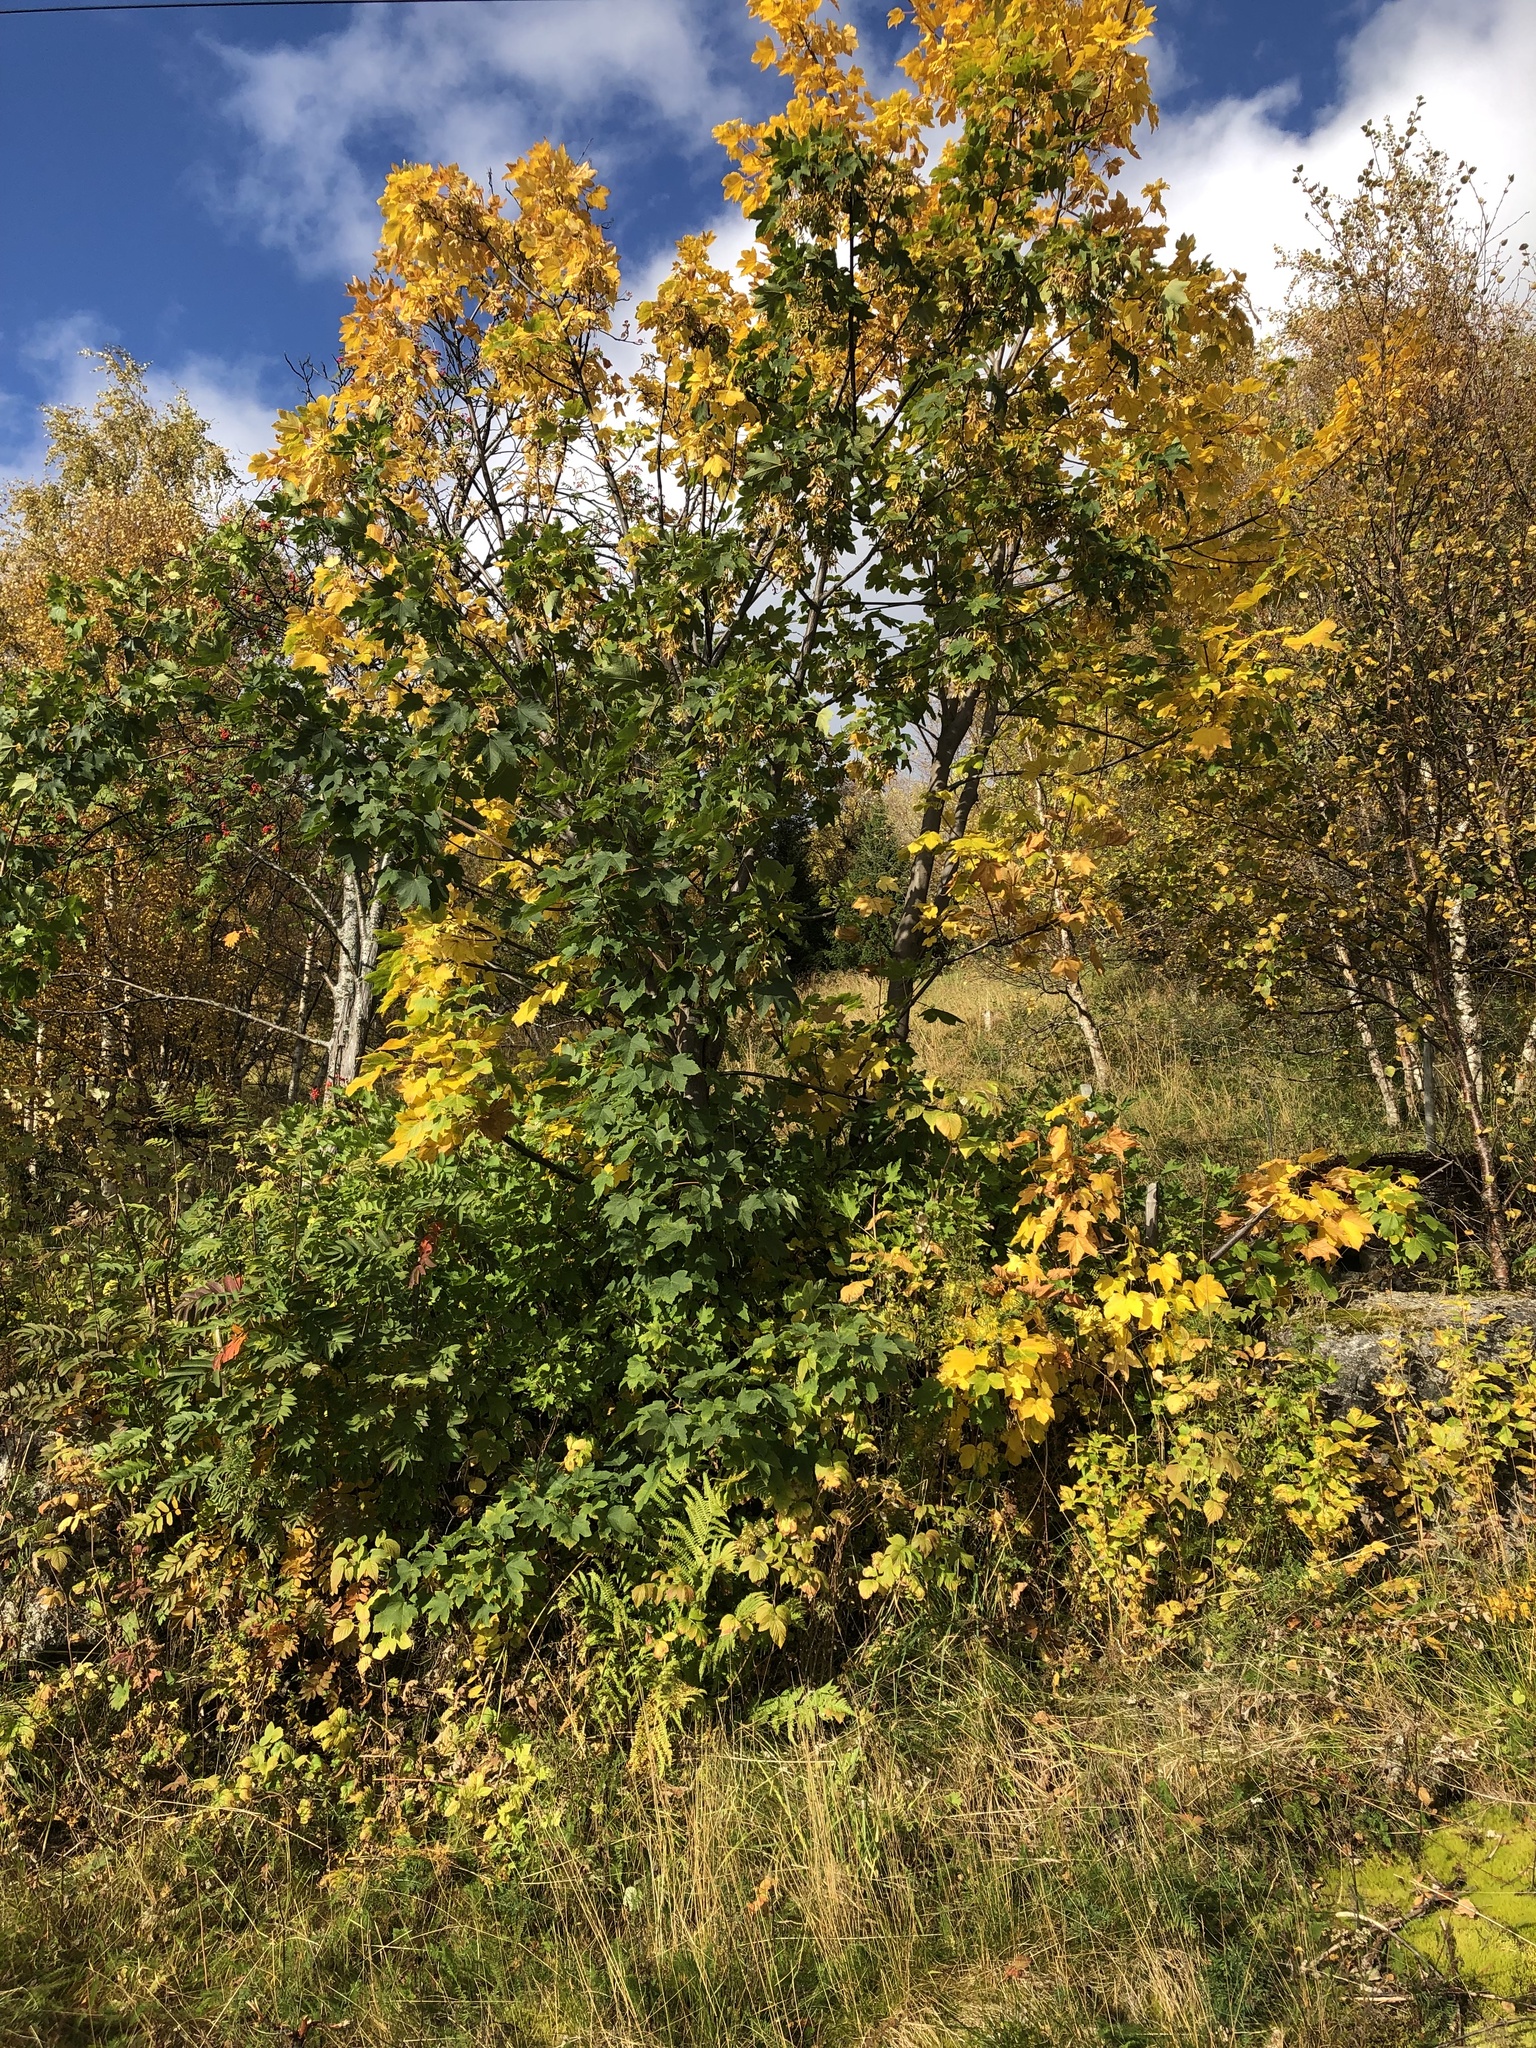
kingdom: Plantae
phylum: Tracheophyta
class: Magnoliopsida
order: Sapindales
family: Sapindaceae
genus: Acer
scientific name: Acer pseudoplatanus
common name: Sycamore
